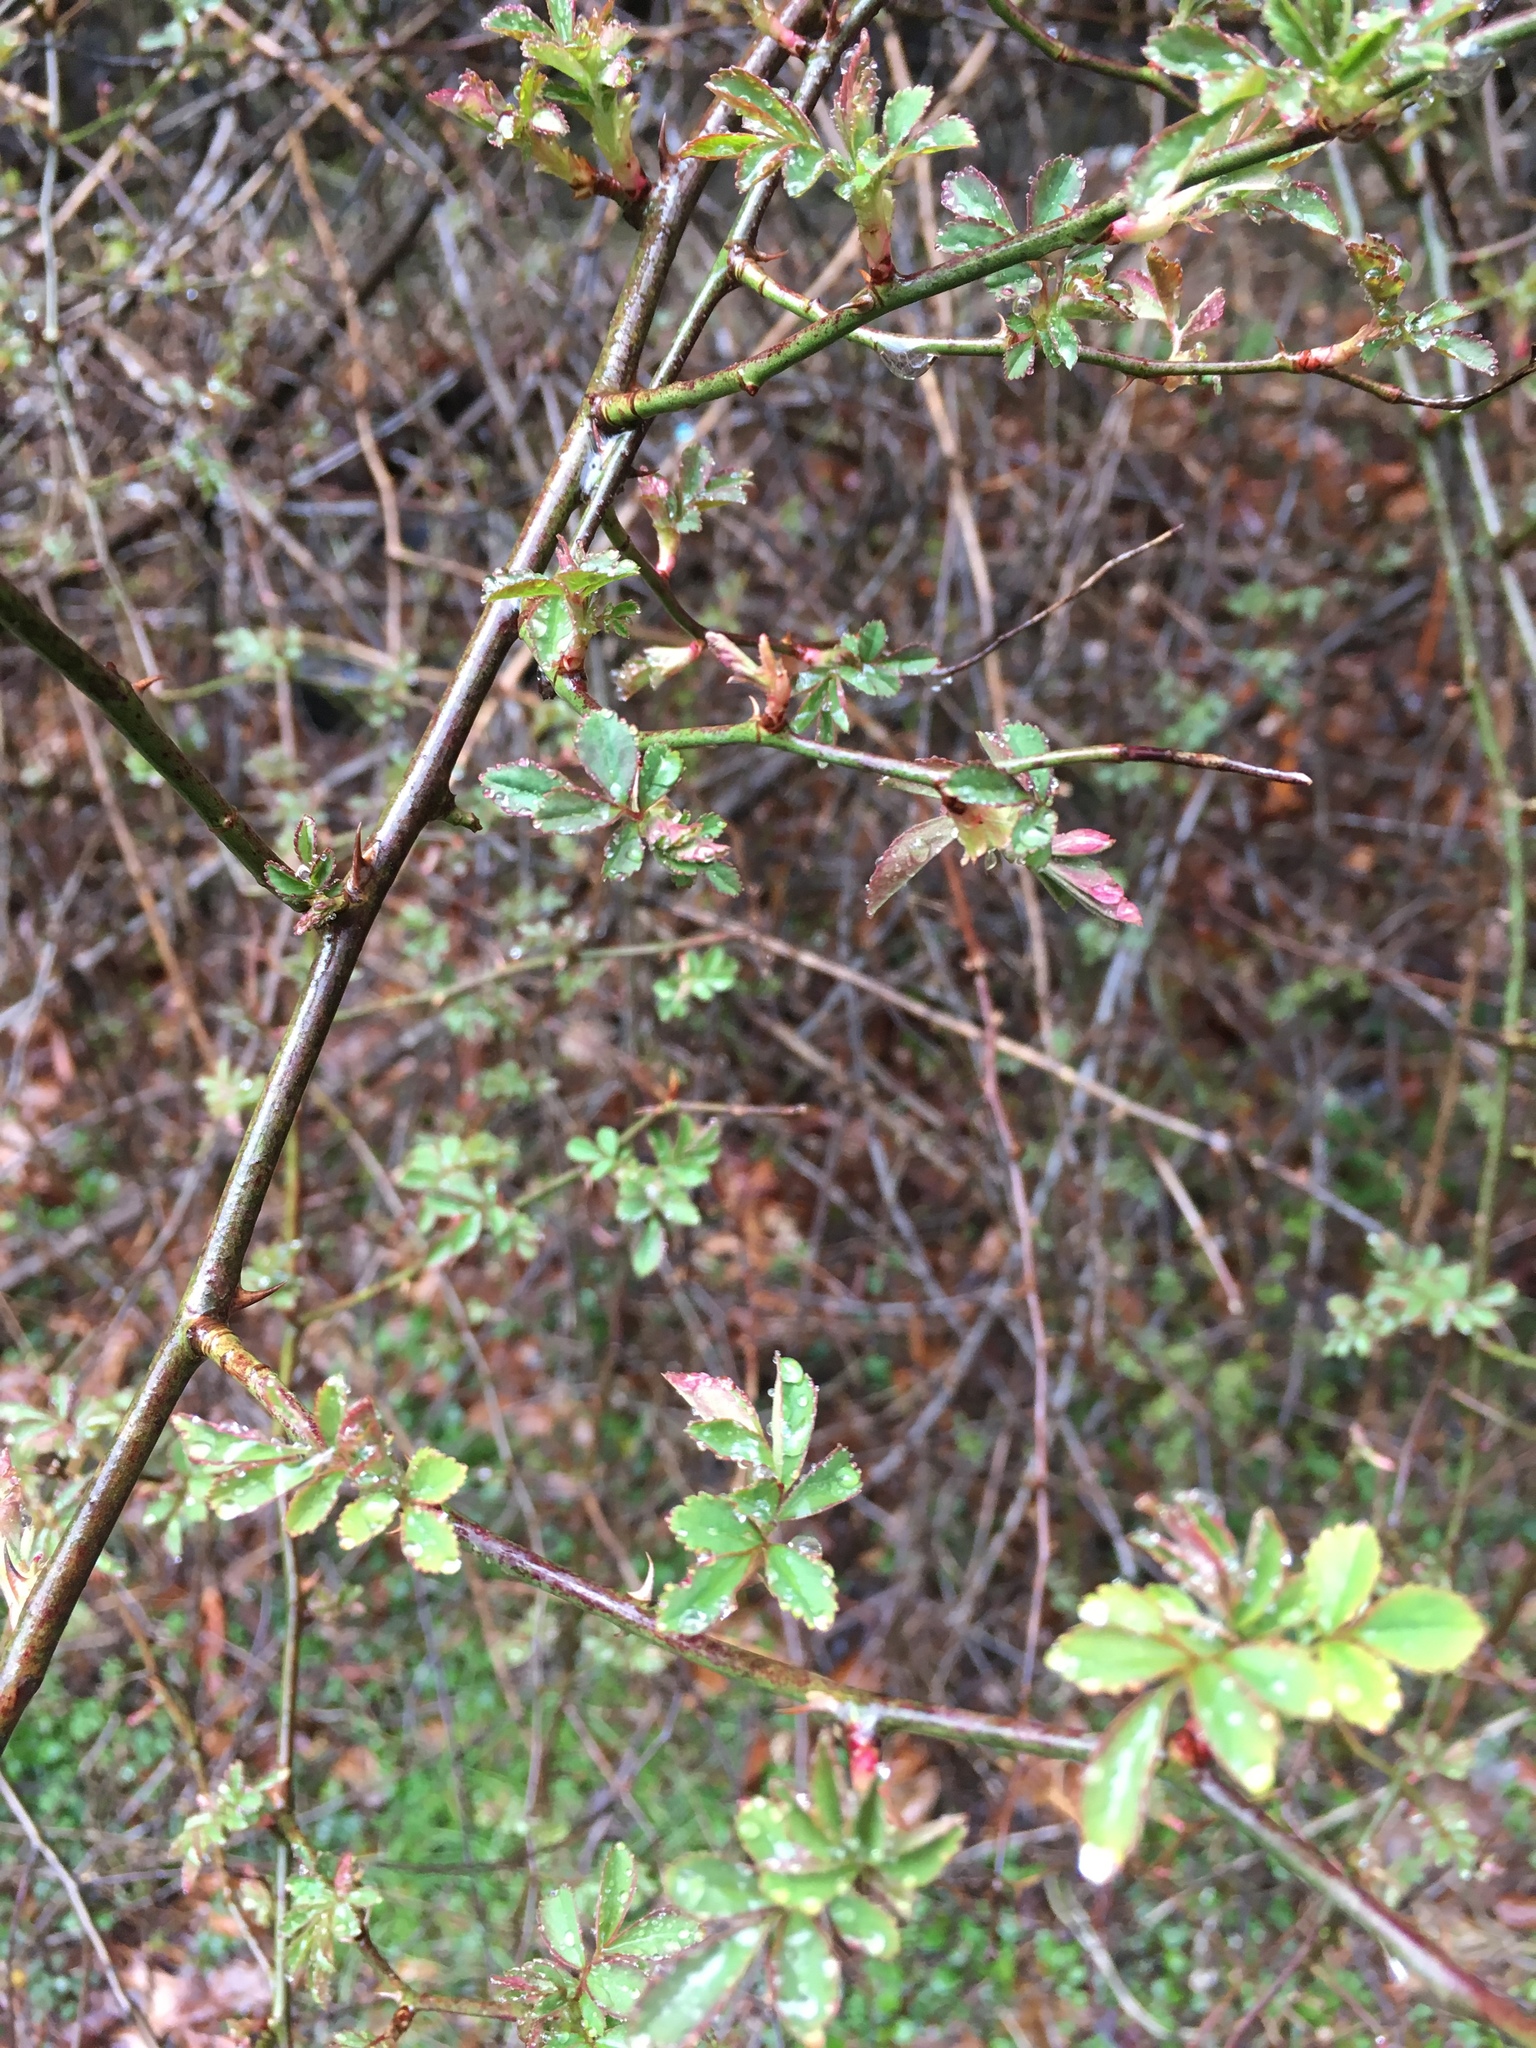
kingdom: Plantae
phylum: Tracheophyta
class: Magnoliopsida
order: Rosales
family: Rosaceae
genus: Rosa
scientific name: Rosa multiflora
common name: Multiflora rose
